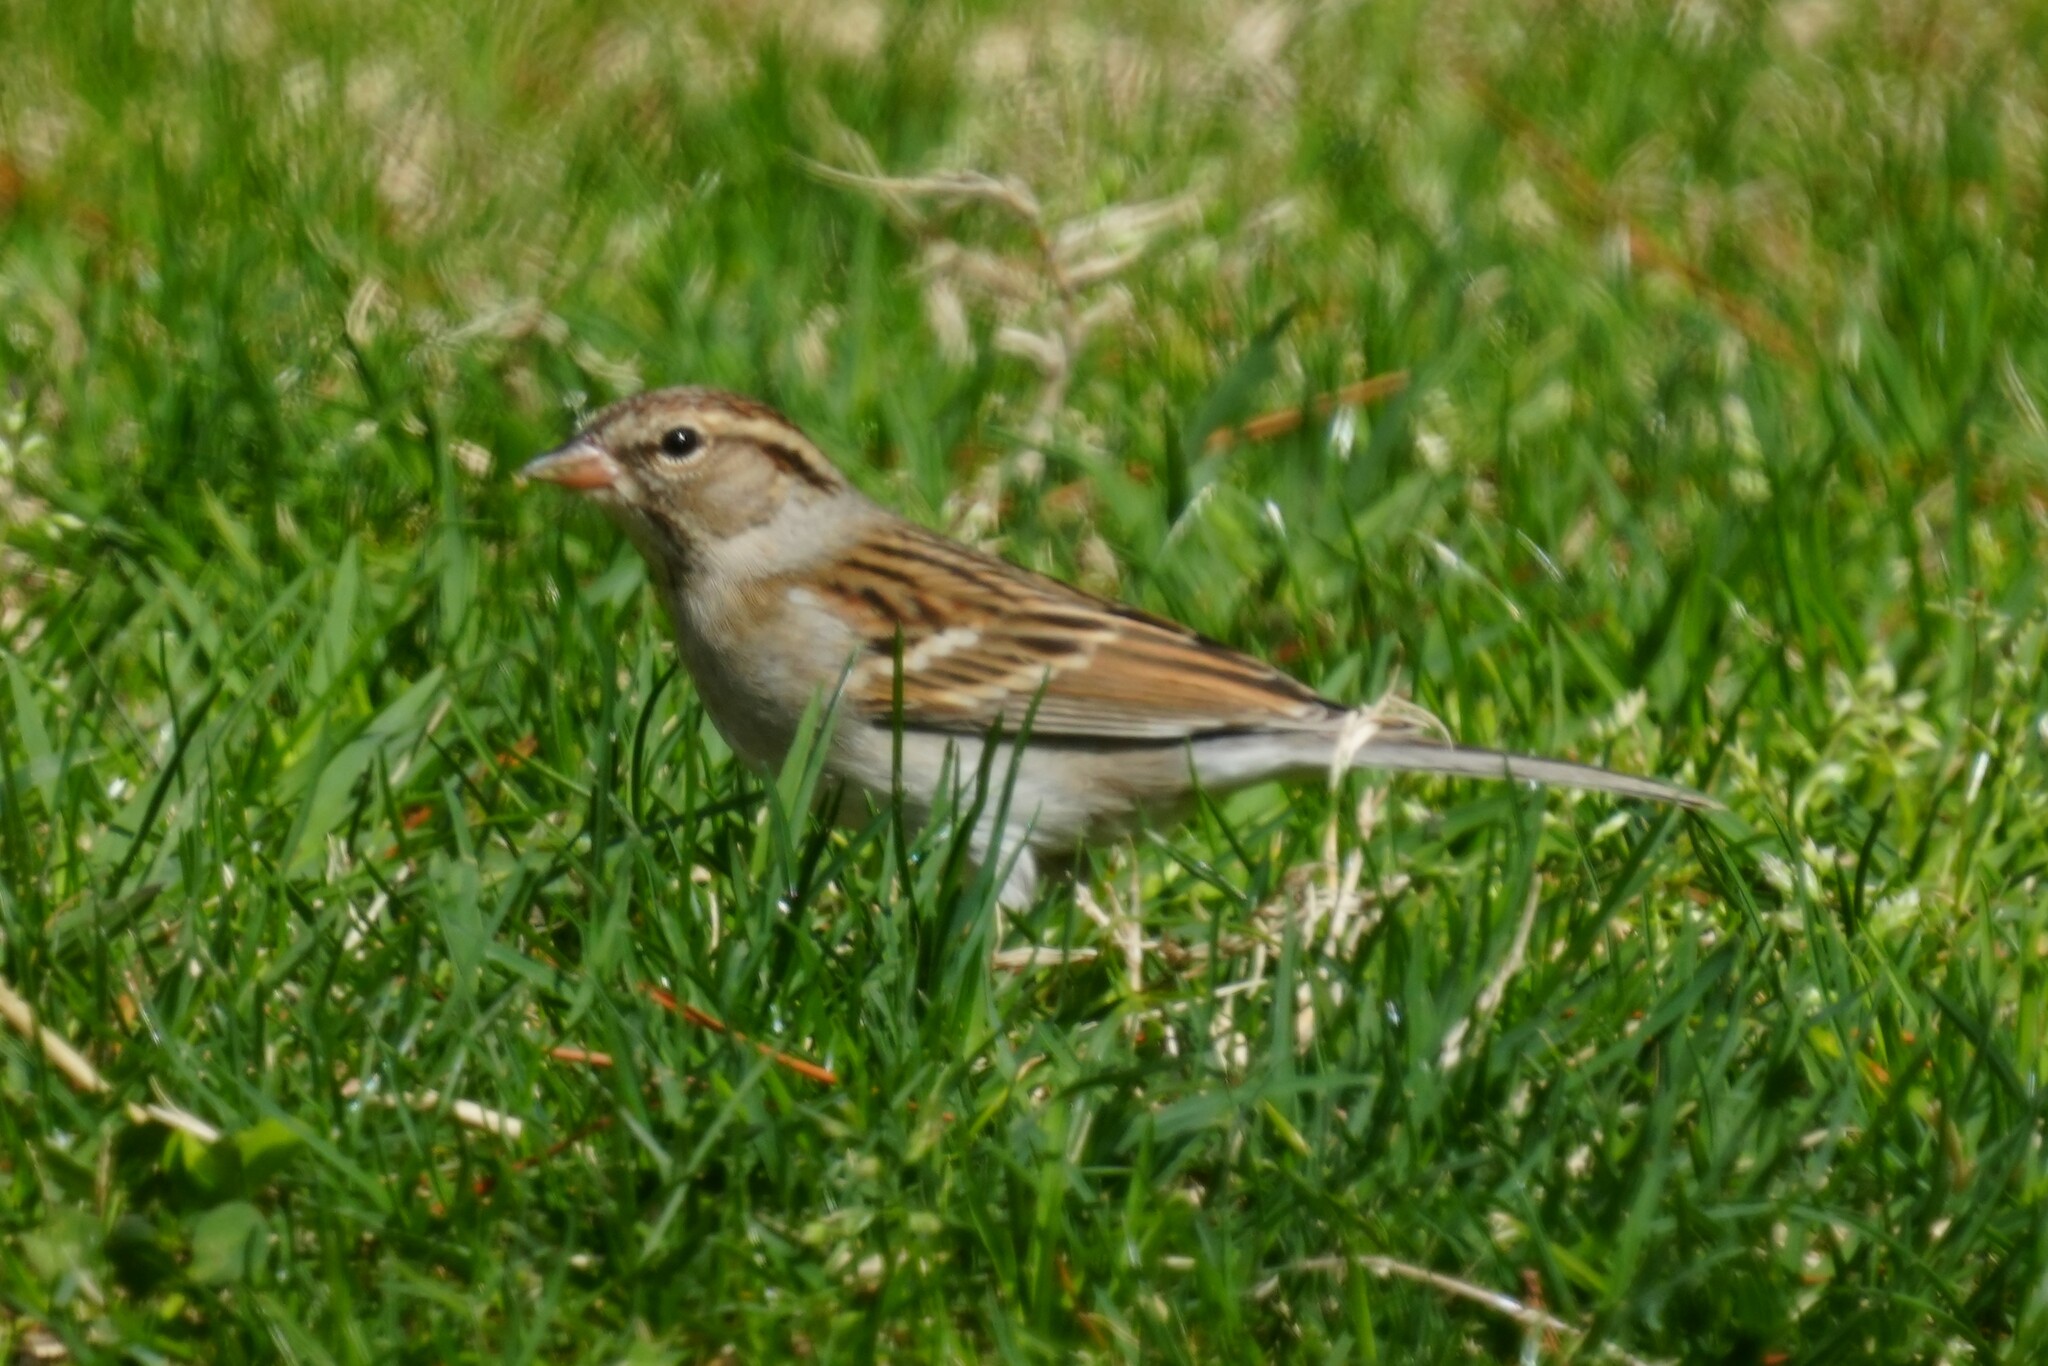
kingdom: Animalia
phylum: Chordata
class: Aves
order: Passeriformes
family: Passerellidae
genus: Spizella
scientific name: Spizella passerina
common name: Chipping sparrow
